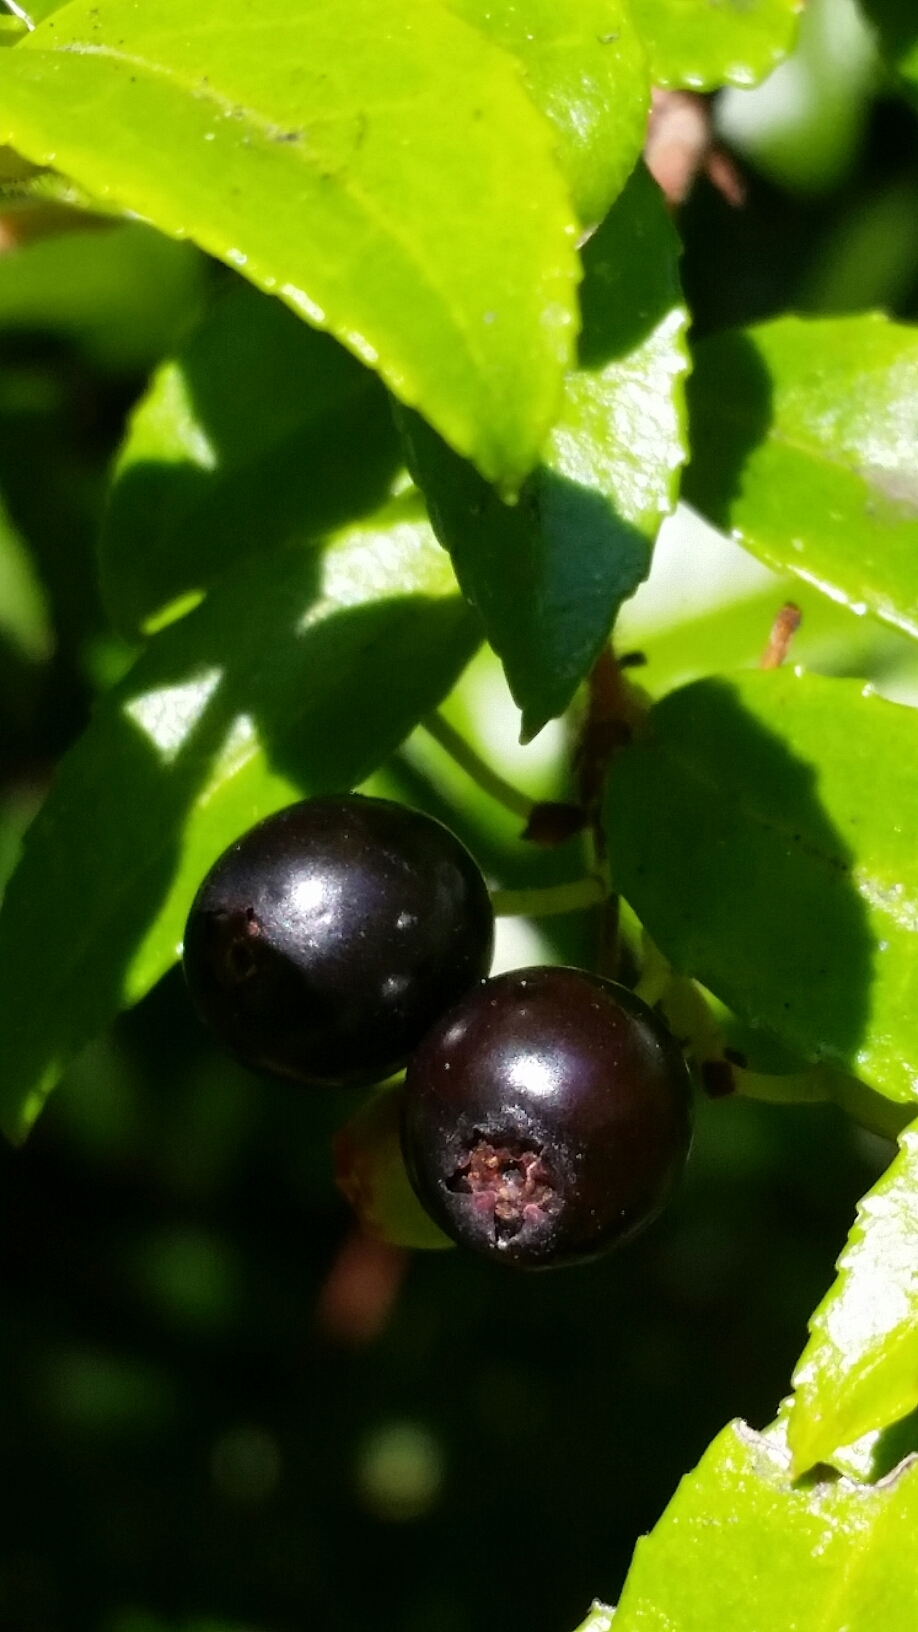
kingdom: Plantae
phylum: Tracheophyta
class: Magnoliopsida
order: Ericales
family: Ericaceae
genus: Vaccinium
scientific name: Vaccinium ovatum
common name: California-huckleberry
